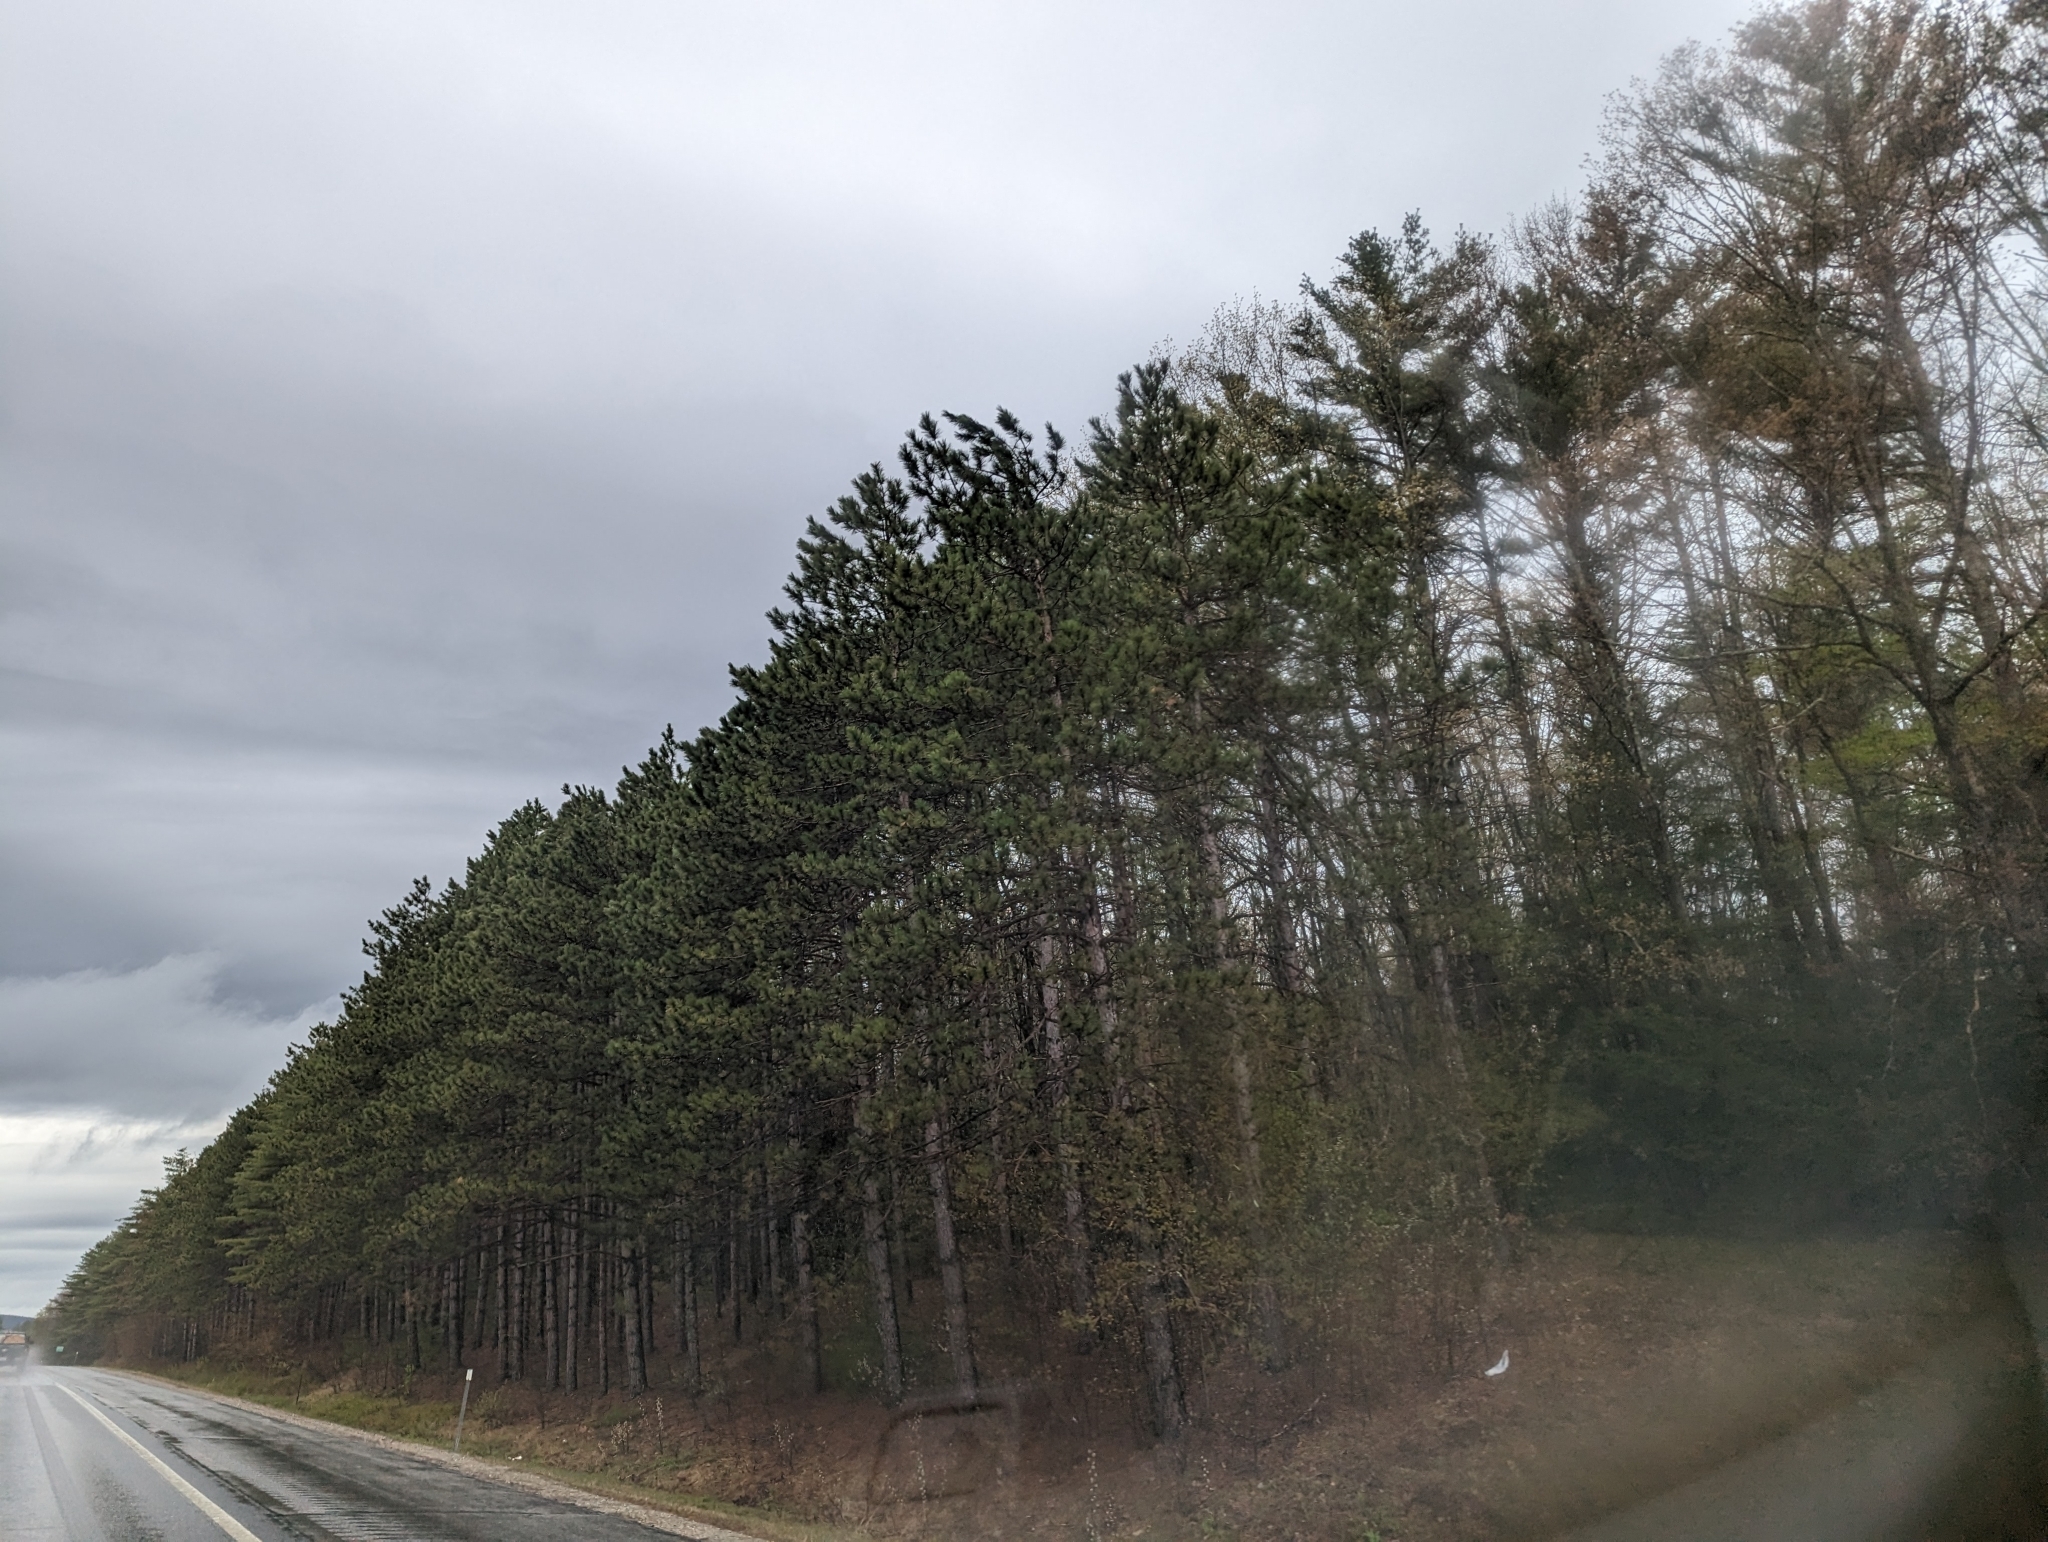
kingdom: Plantae
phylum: Tracheophyta
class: Pinopsida
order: Pinales
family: Pinaceae
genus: Pinus
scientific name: Pinus resinosa
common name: Norway pine
